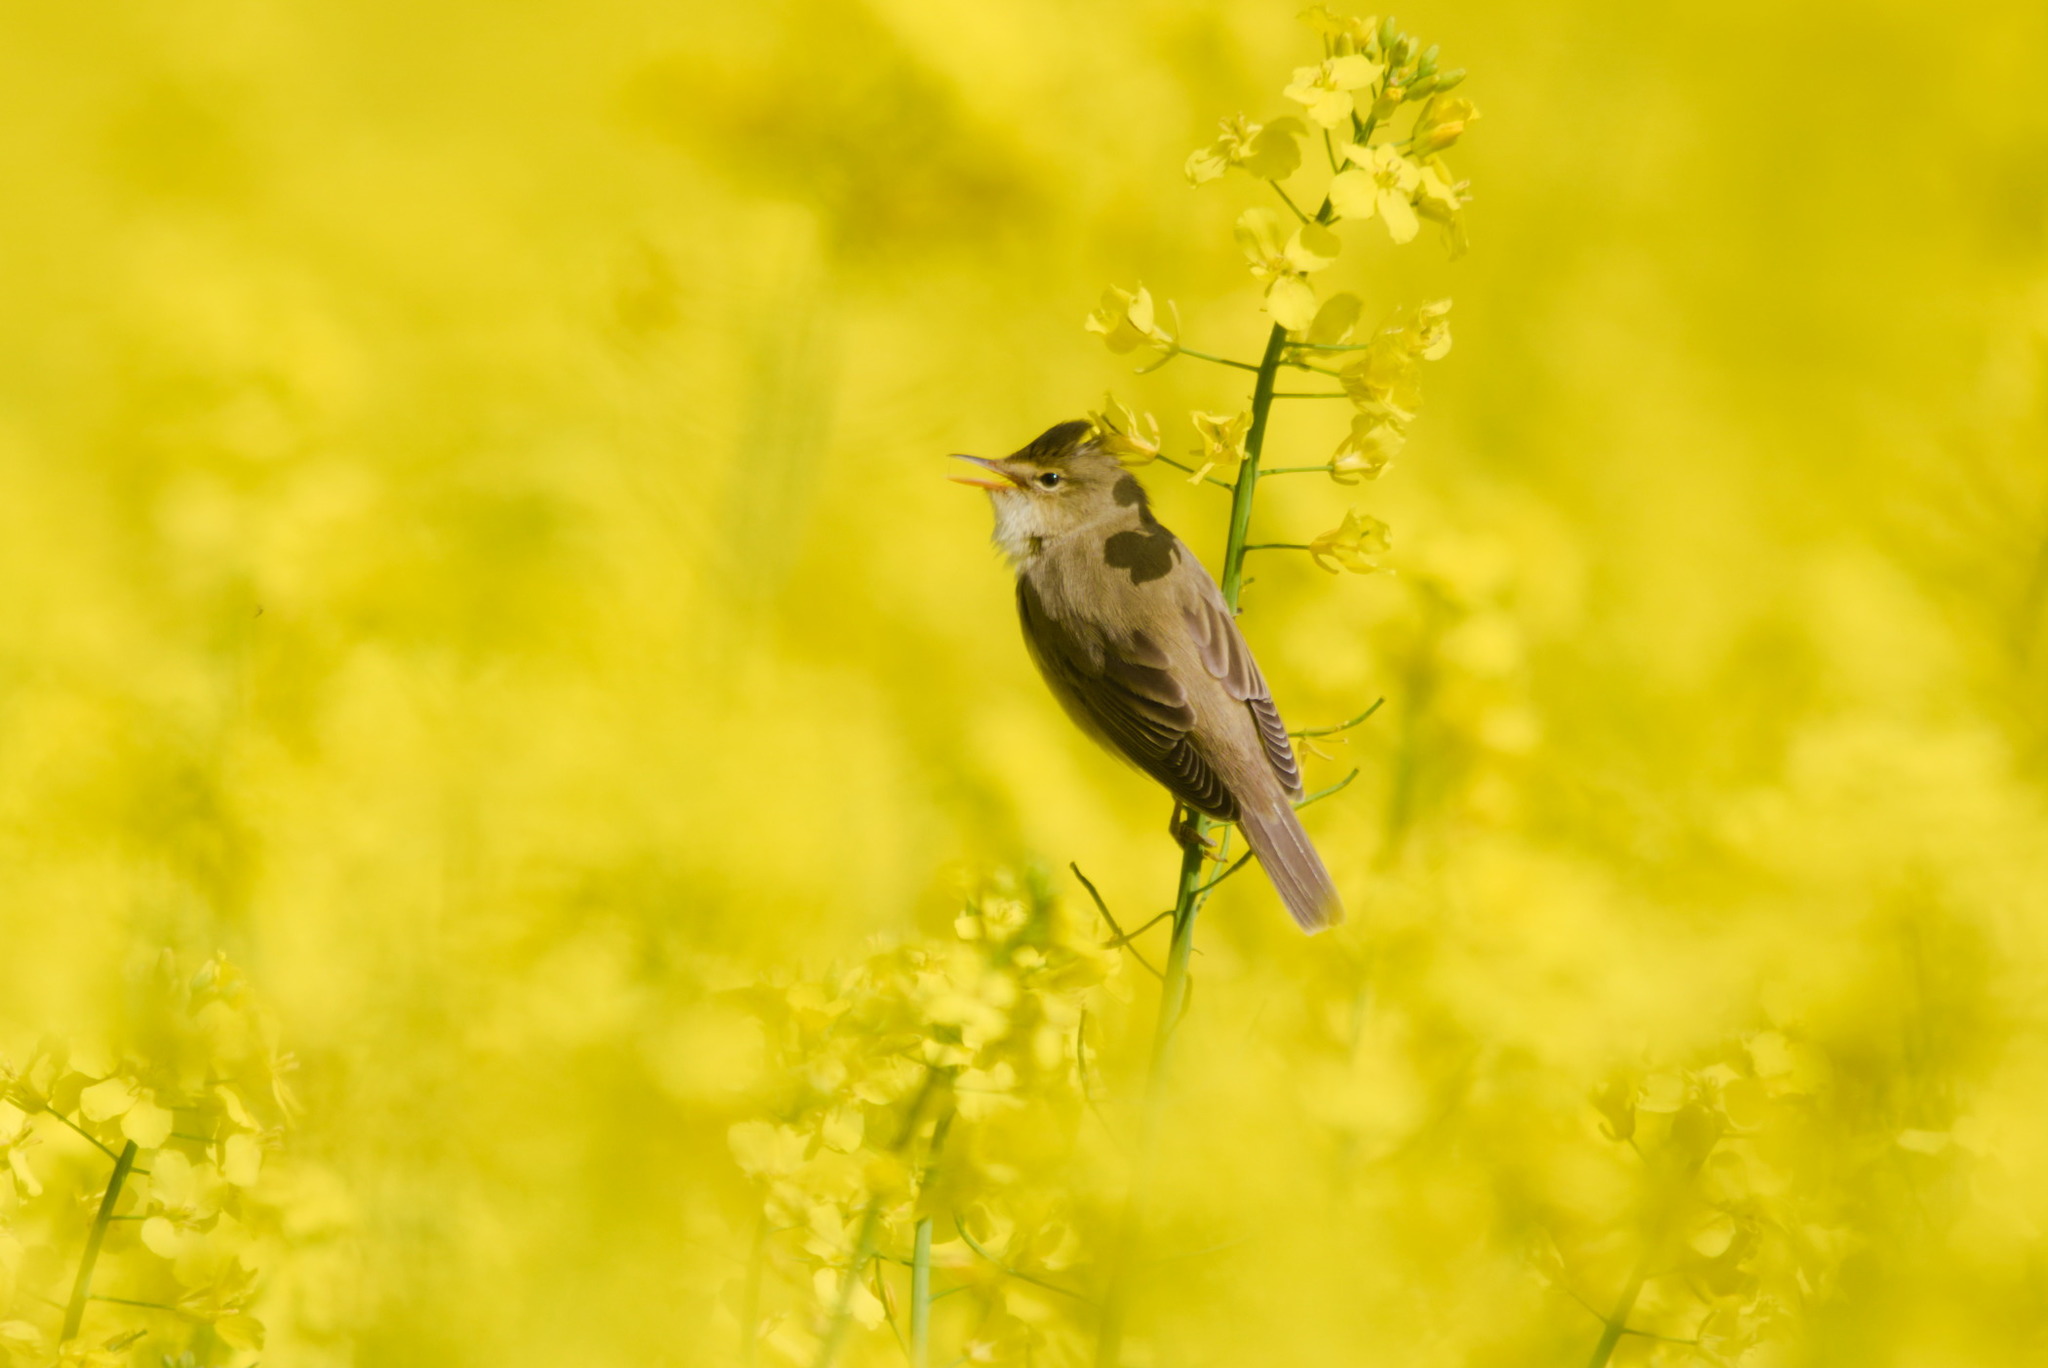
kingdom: Animalia
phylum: Chordata
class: Aves
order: Passeriformes
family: Acrocephalidae
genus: Acrocephalus
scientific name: Acrocephalus palustris
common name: Marsh warbler
